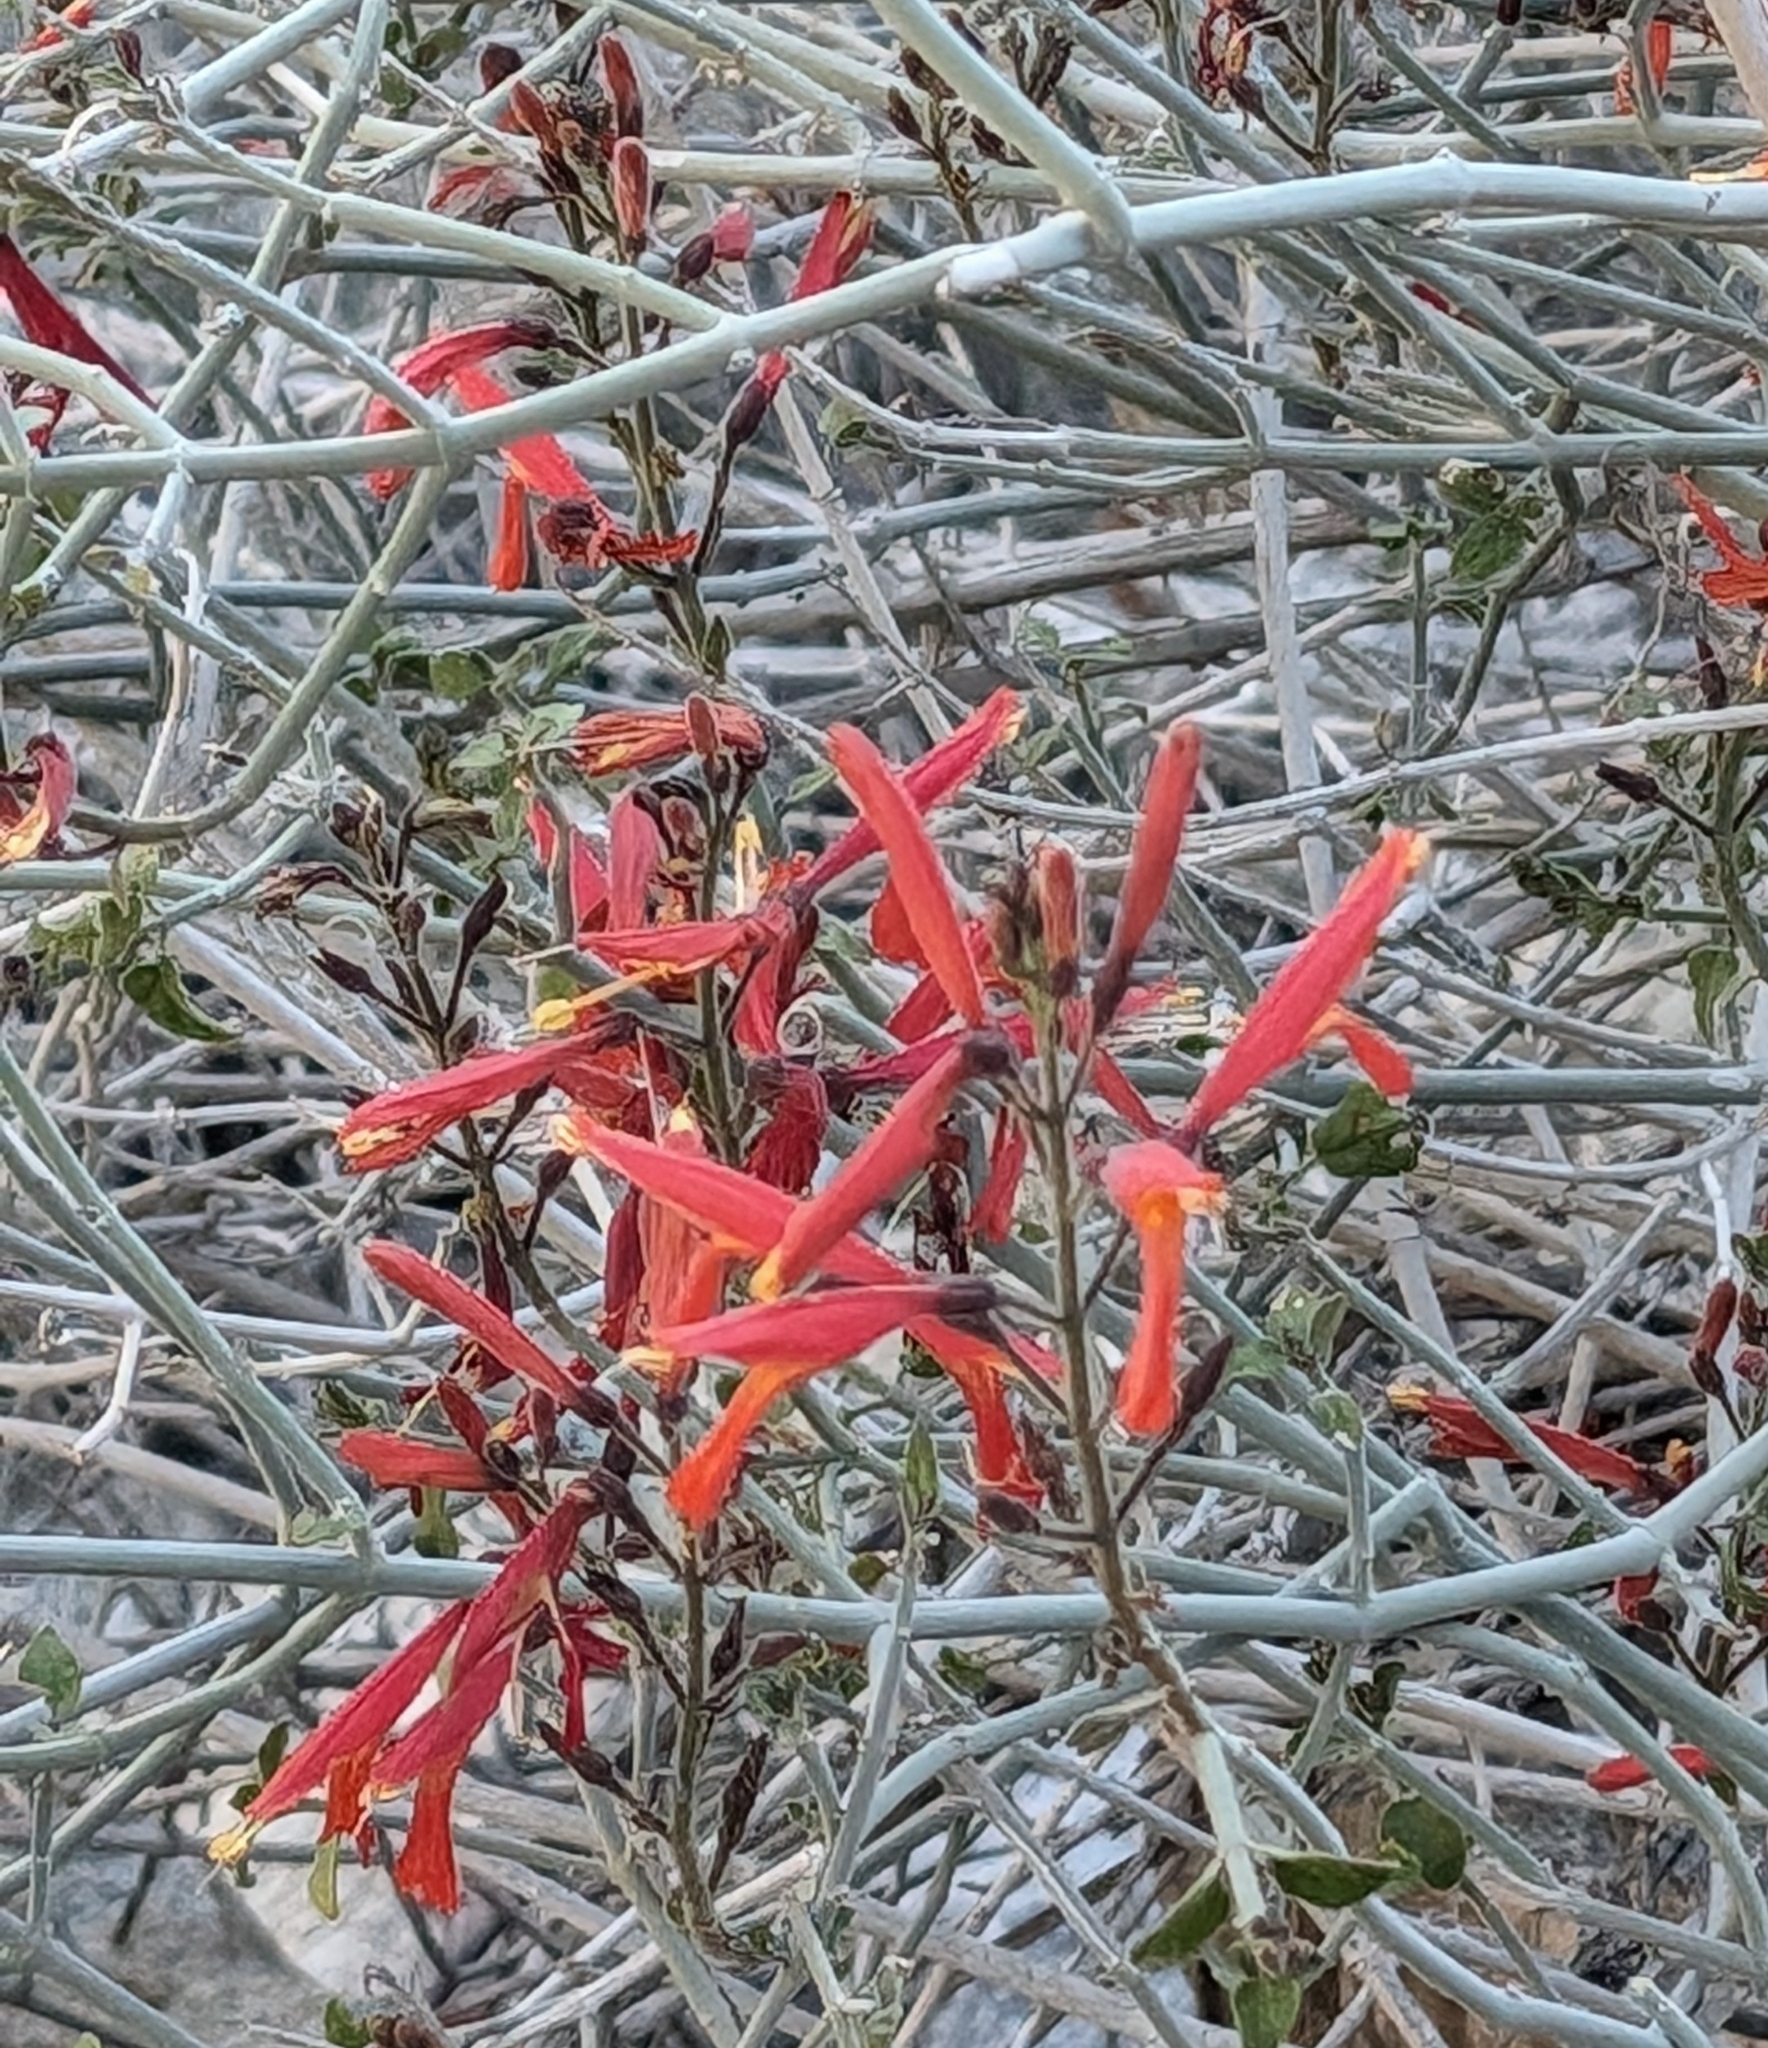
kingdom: Plantae
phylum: Tracheophyta
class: Magnoliopsida
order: Lamiales
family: Acanthaceae
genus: Justicia
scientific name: Justicia californica
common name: Chuparosa-honeysuckle
